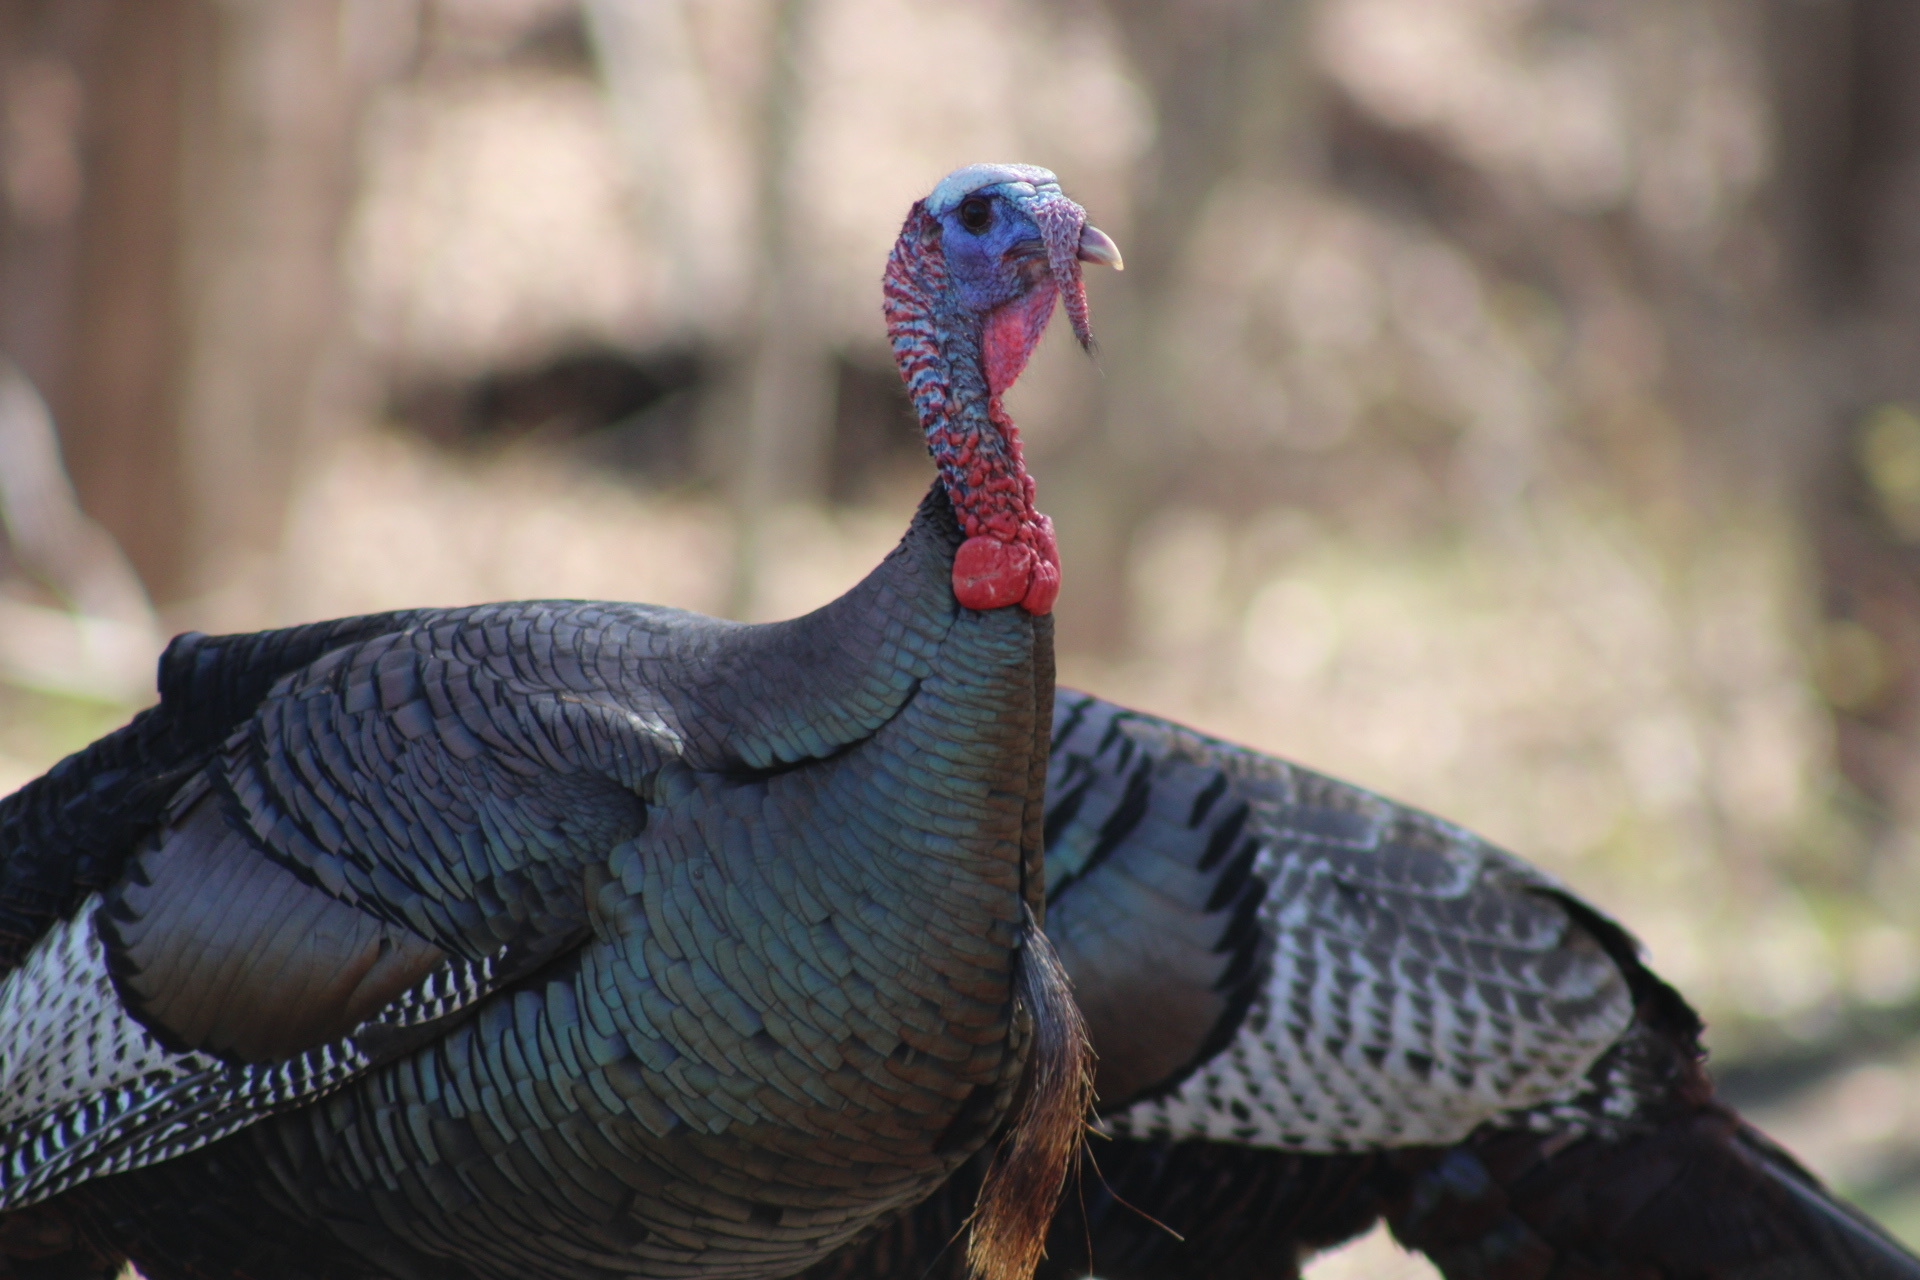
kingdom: Animalia
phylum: Chordata
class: Aves
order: Galliformes
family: Phasianidae
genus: Meleagris
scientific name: Meleagris gallopavo
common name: Wild turkey
